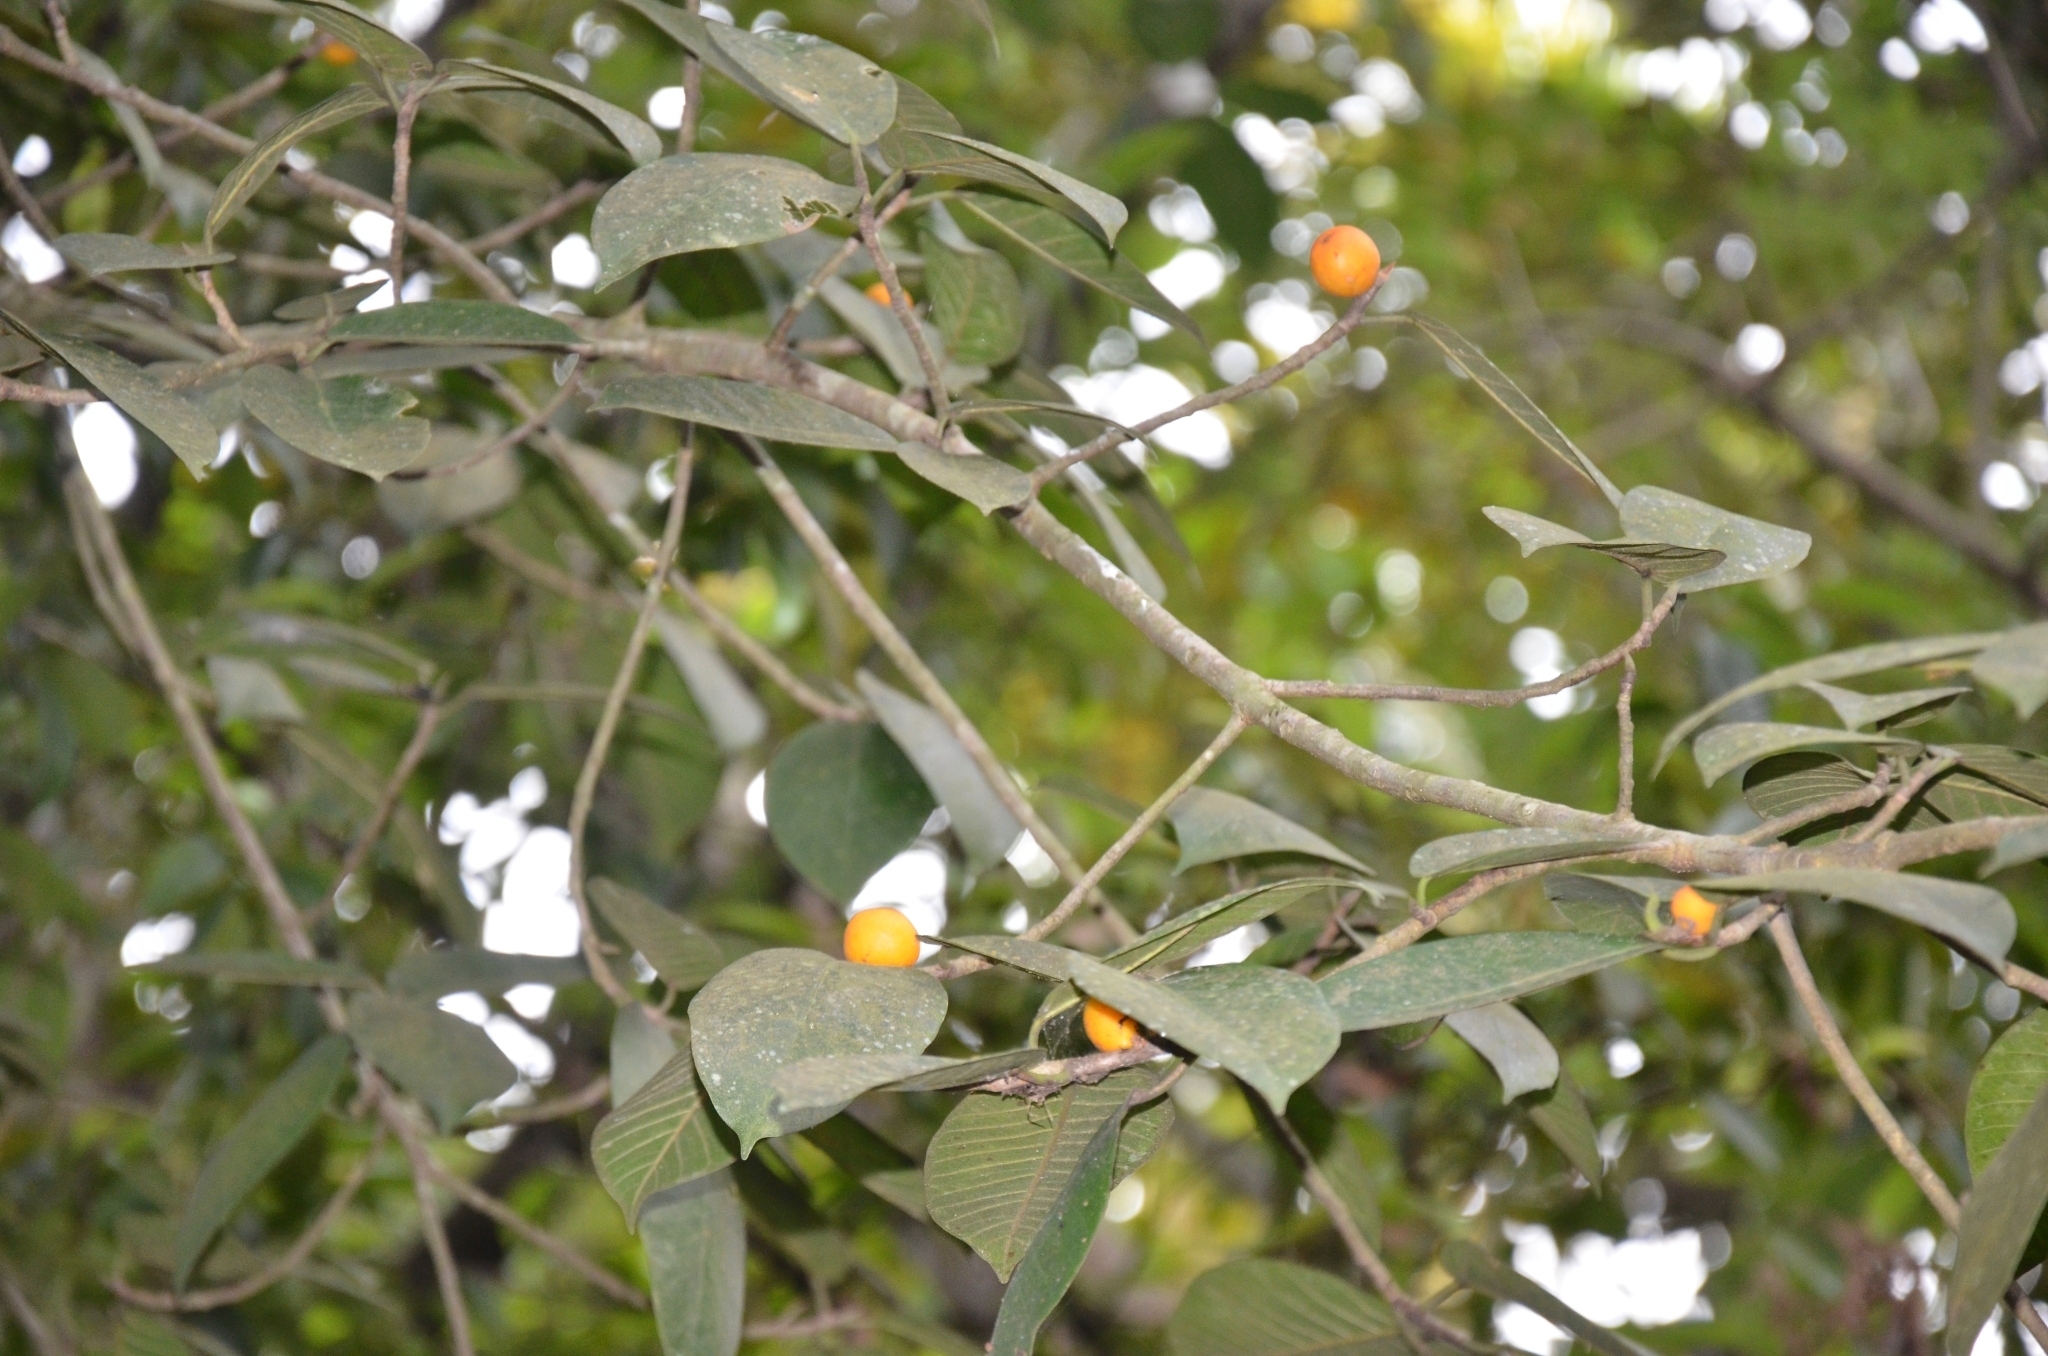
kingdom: Plantae
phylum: Tracheophyta
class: Magnoliopsida
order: Rosales
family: Moraceae
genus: Ficus
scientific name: Ficus drupacea
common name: Drupe fig
